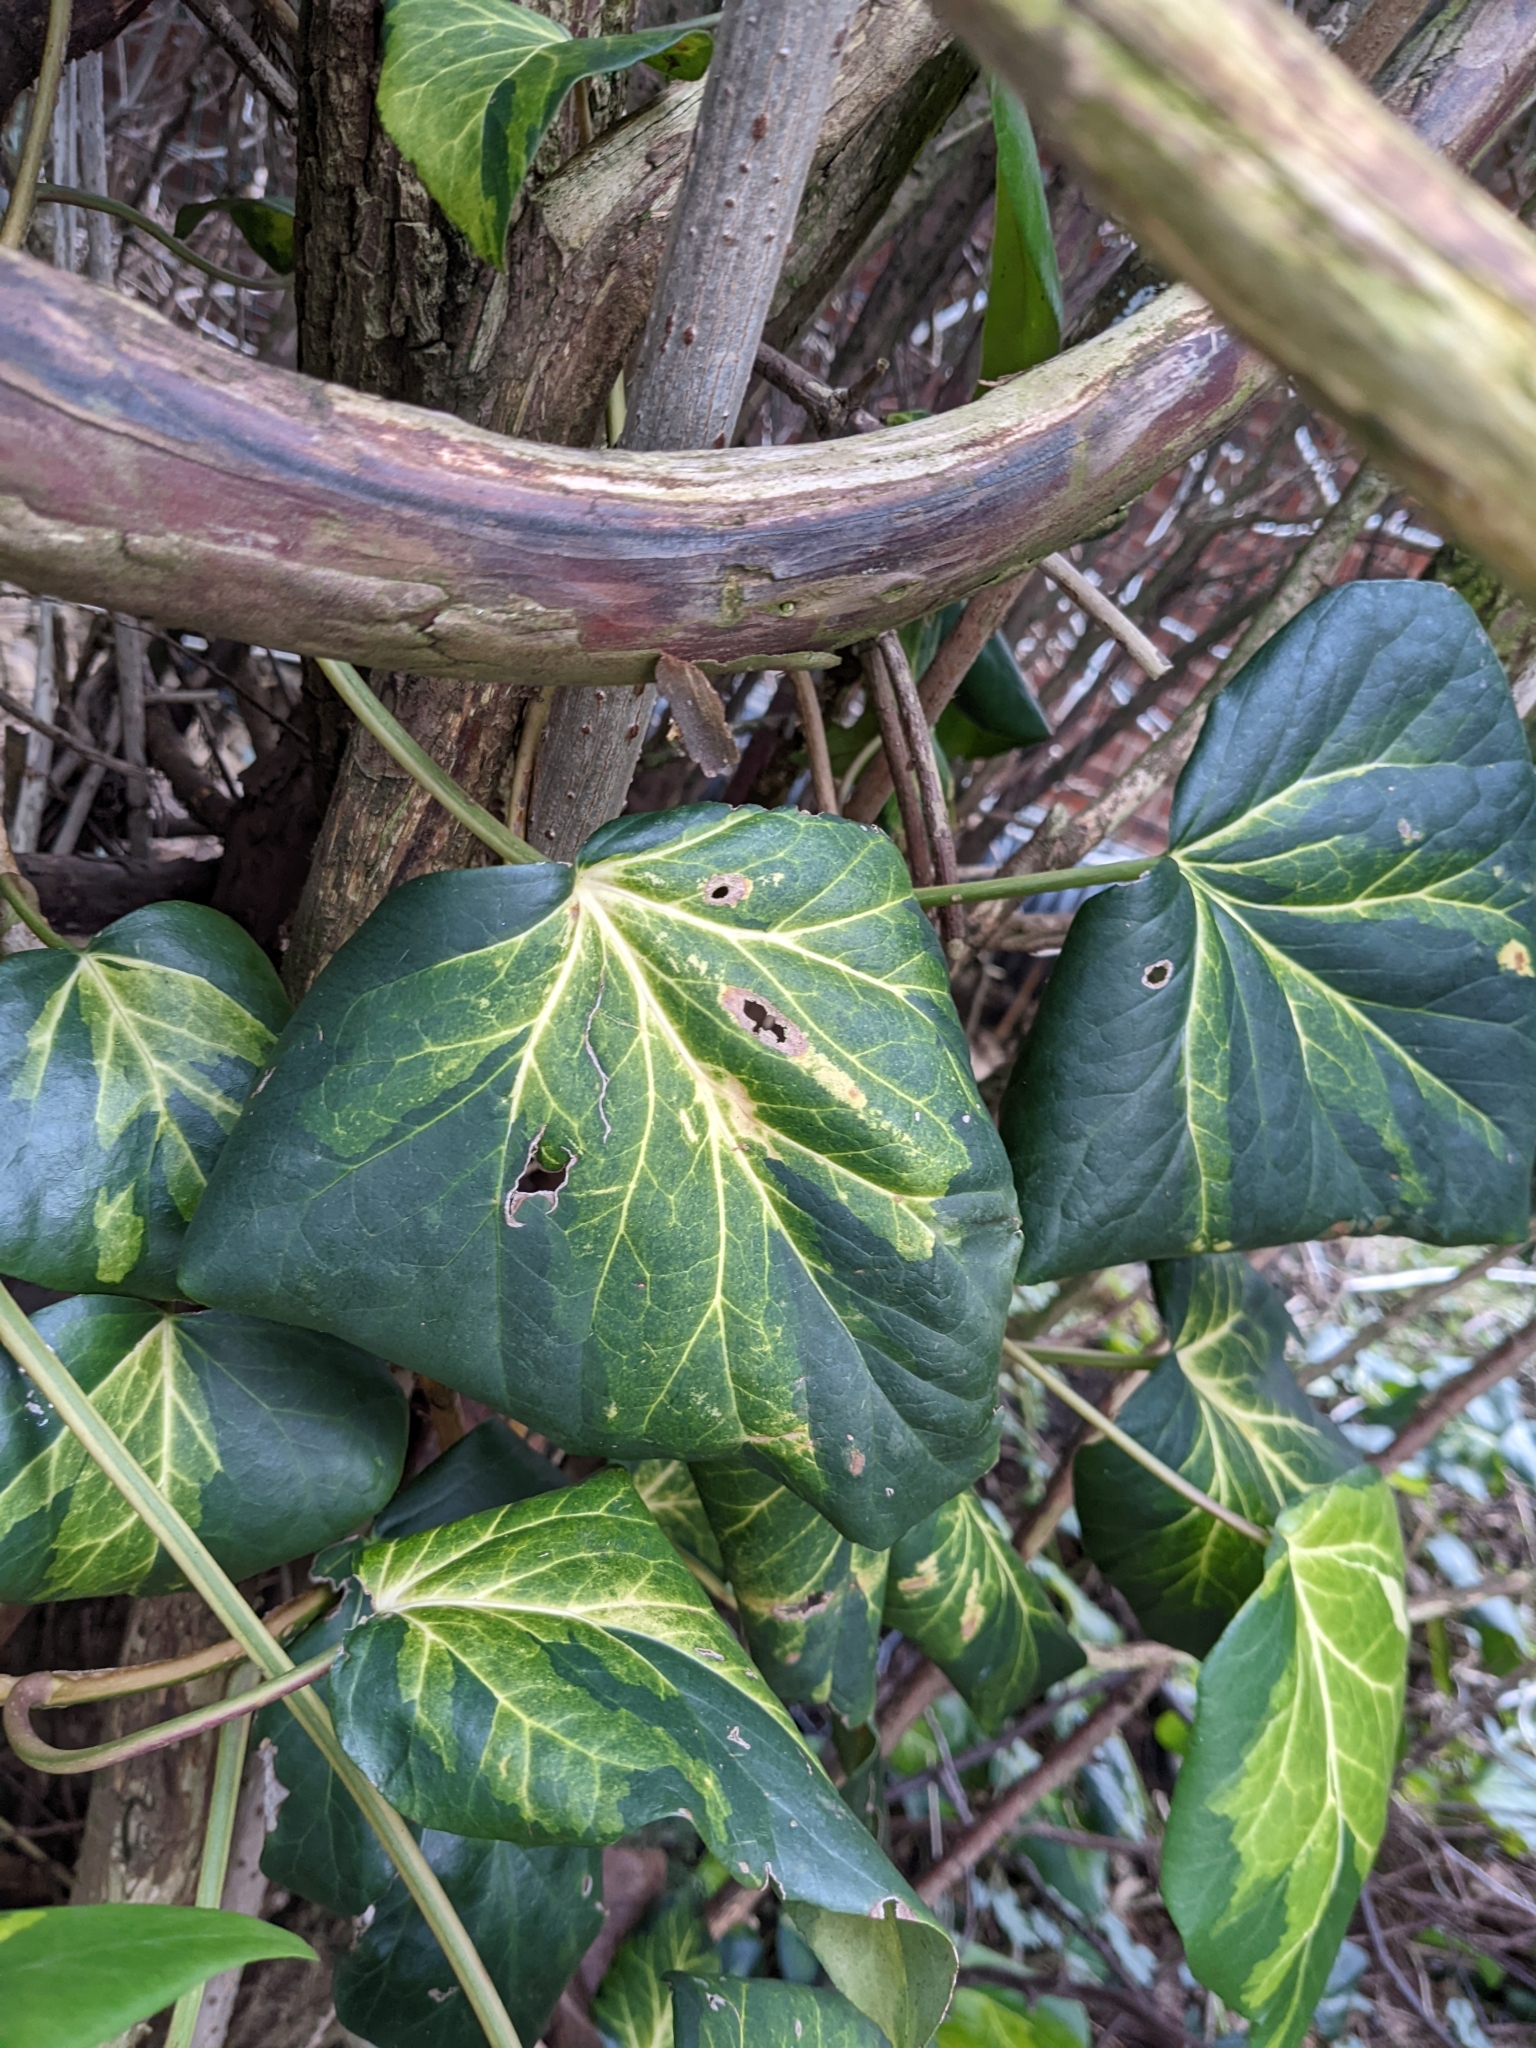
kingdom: Plantae
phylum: Tracheophyta
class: Magnoliopsida
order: Apiales
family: Araliaceae
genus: Hedera
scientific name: Hedera colchica
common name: Persian ivy
